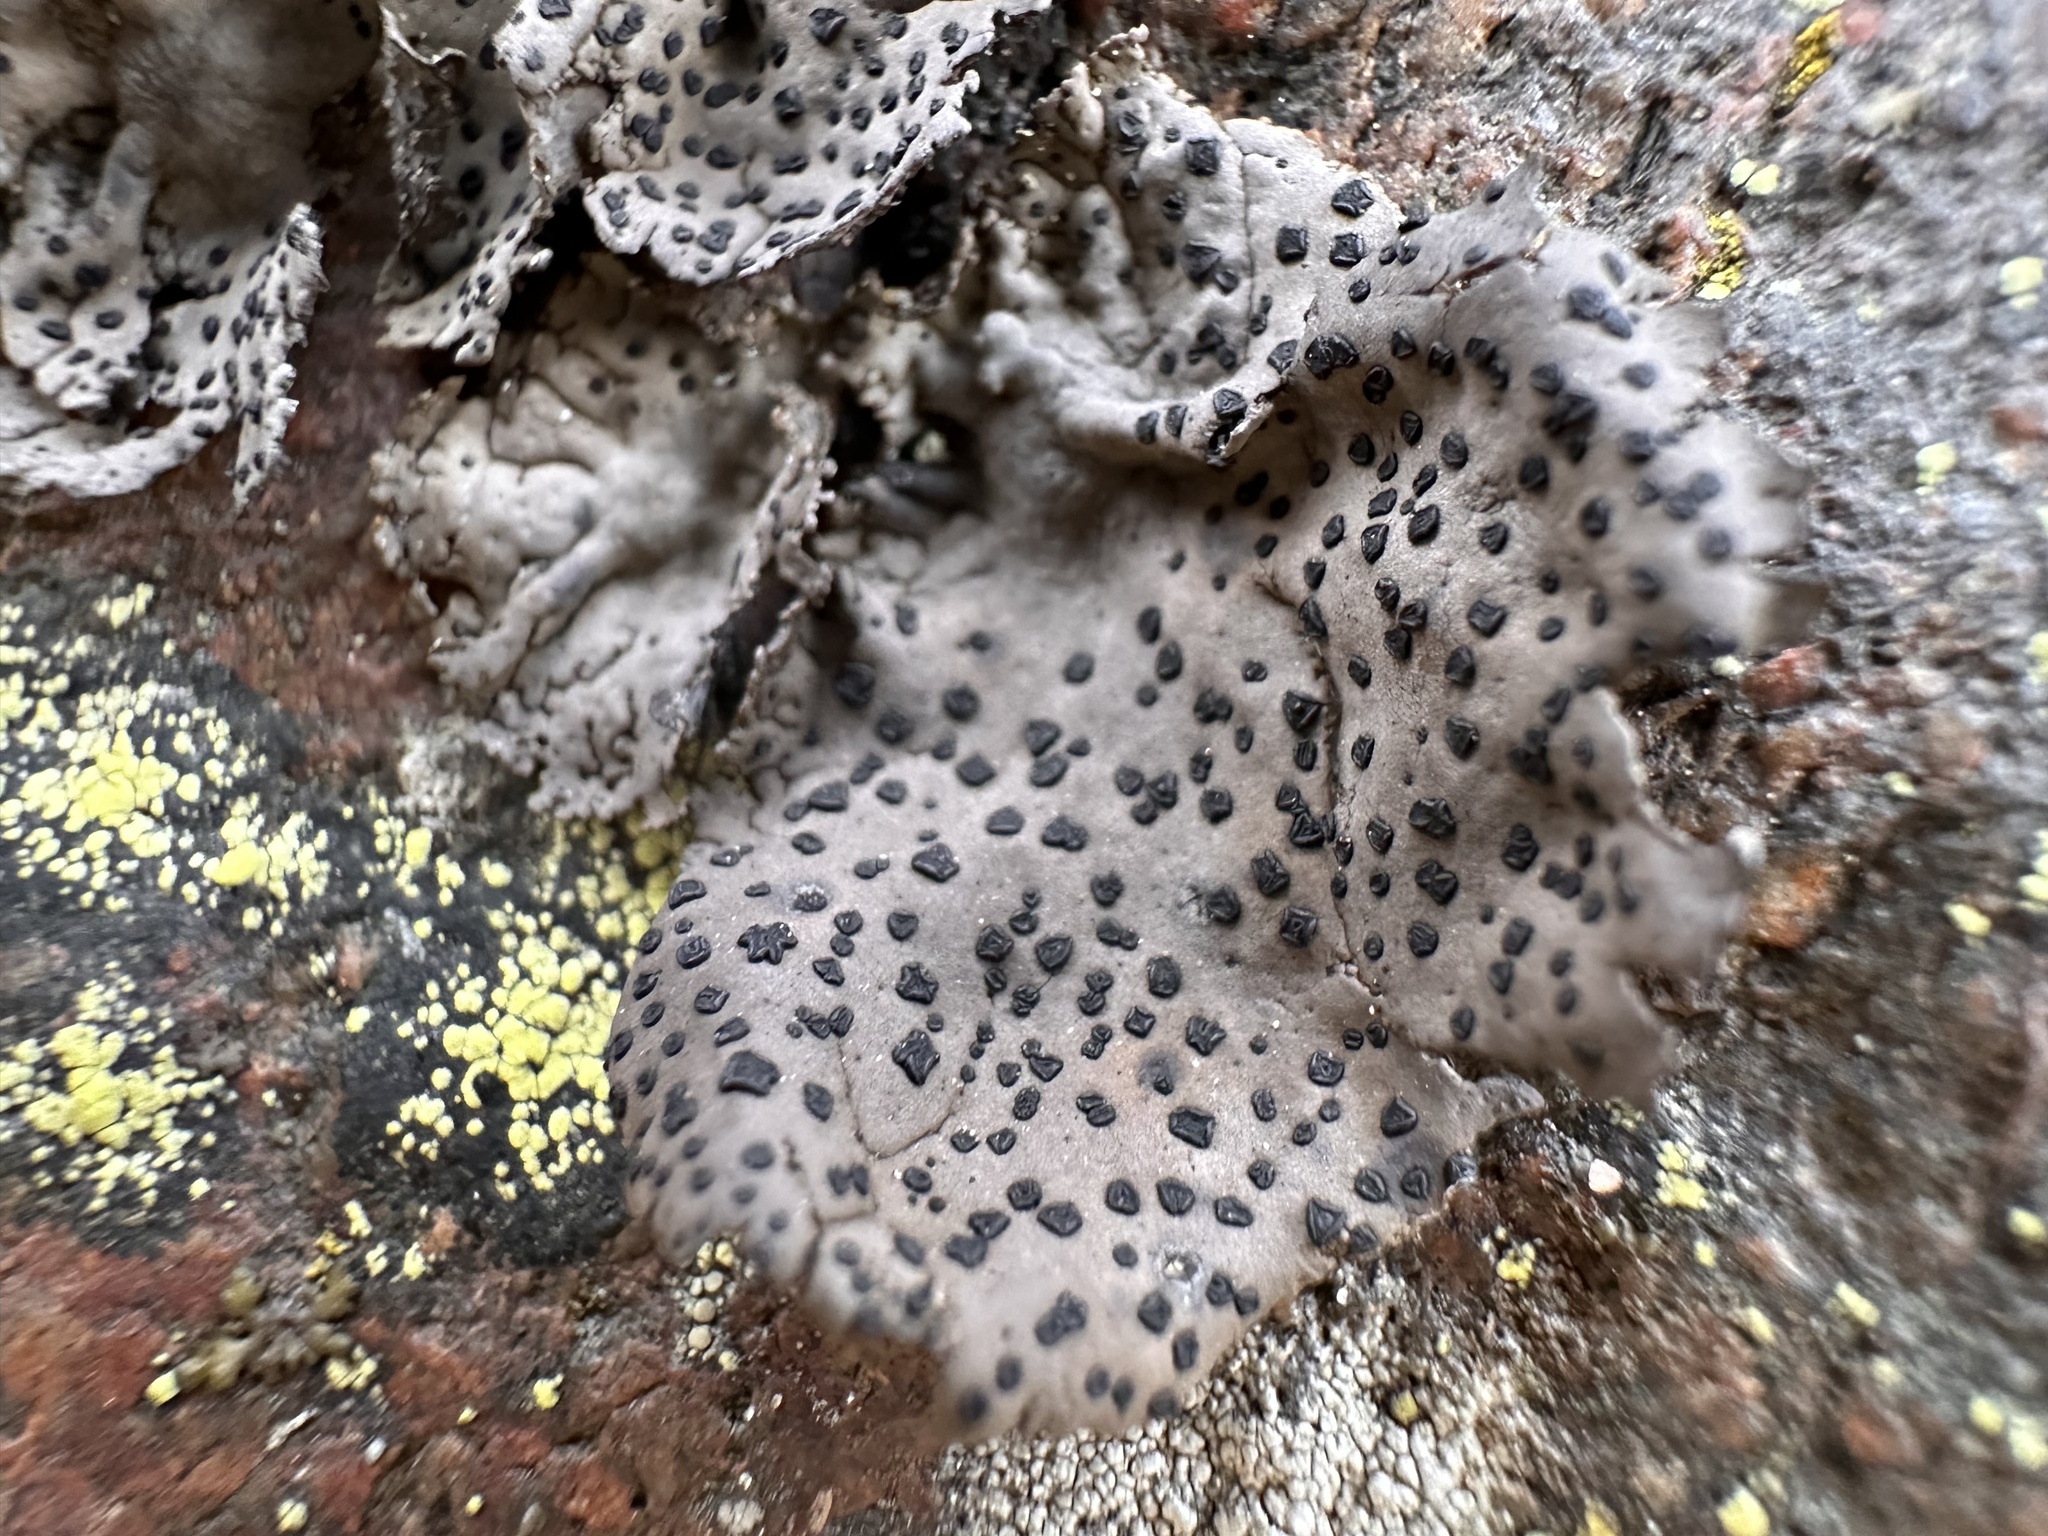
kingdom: Fungi
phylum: Ascomycota
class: Lecanoromycetes
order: Umbilicariales
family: Umbilicariaceae
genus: Umbilicaria
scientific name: Umbilicaria torrefacta
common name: Punctured rock tripe lichen
